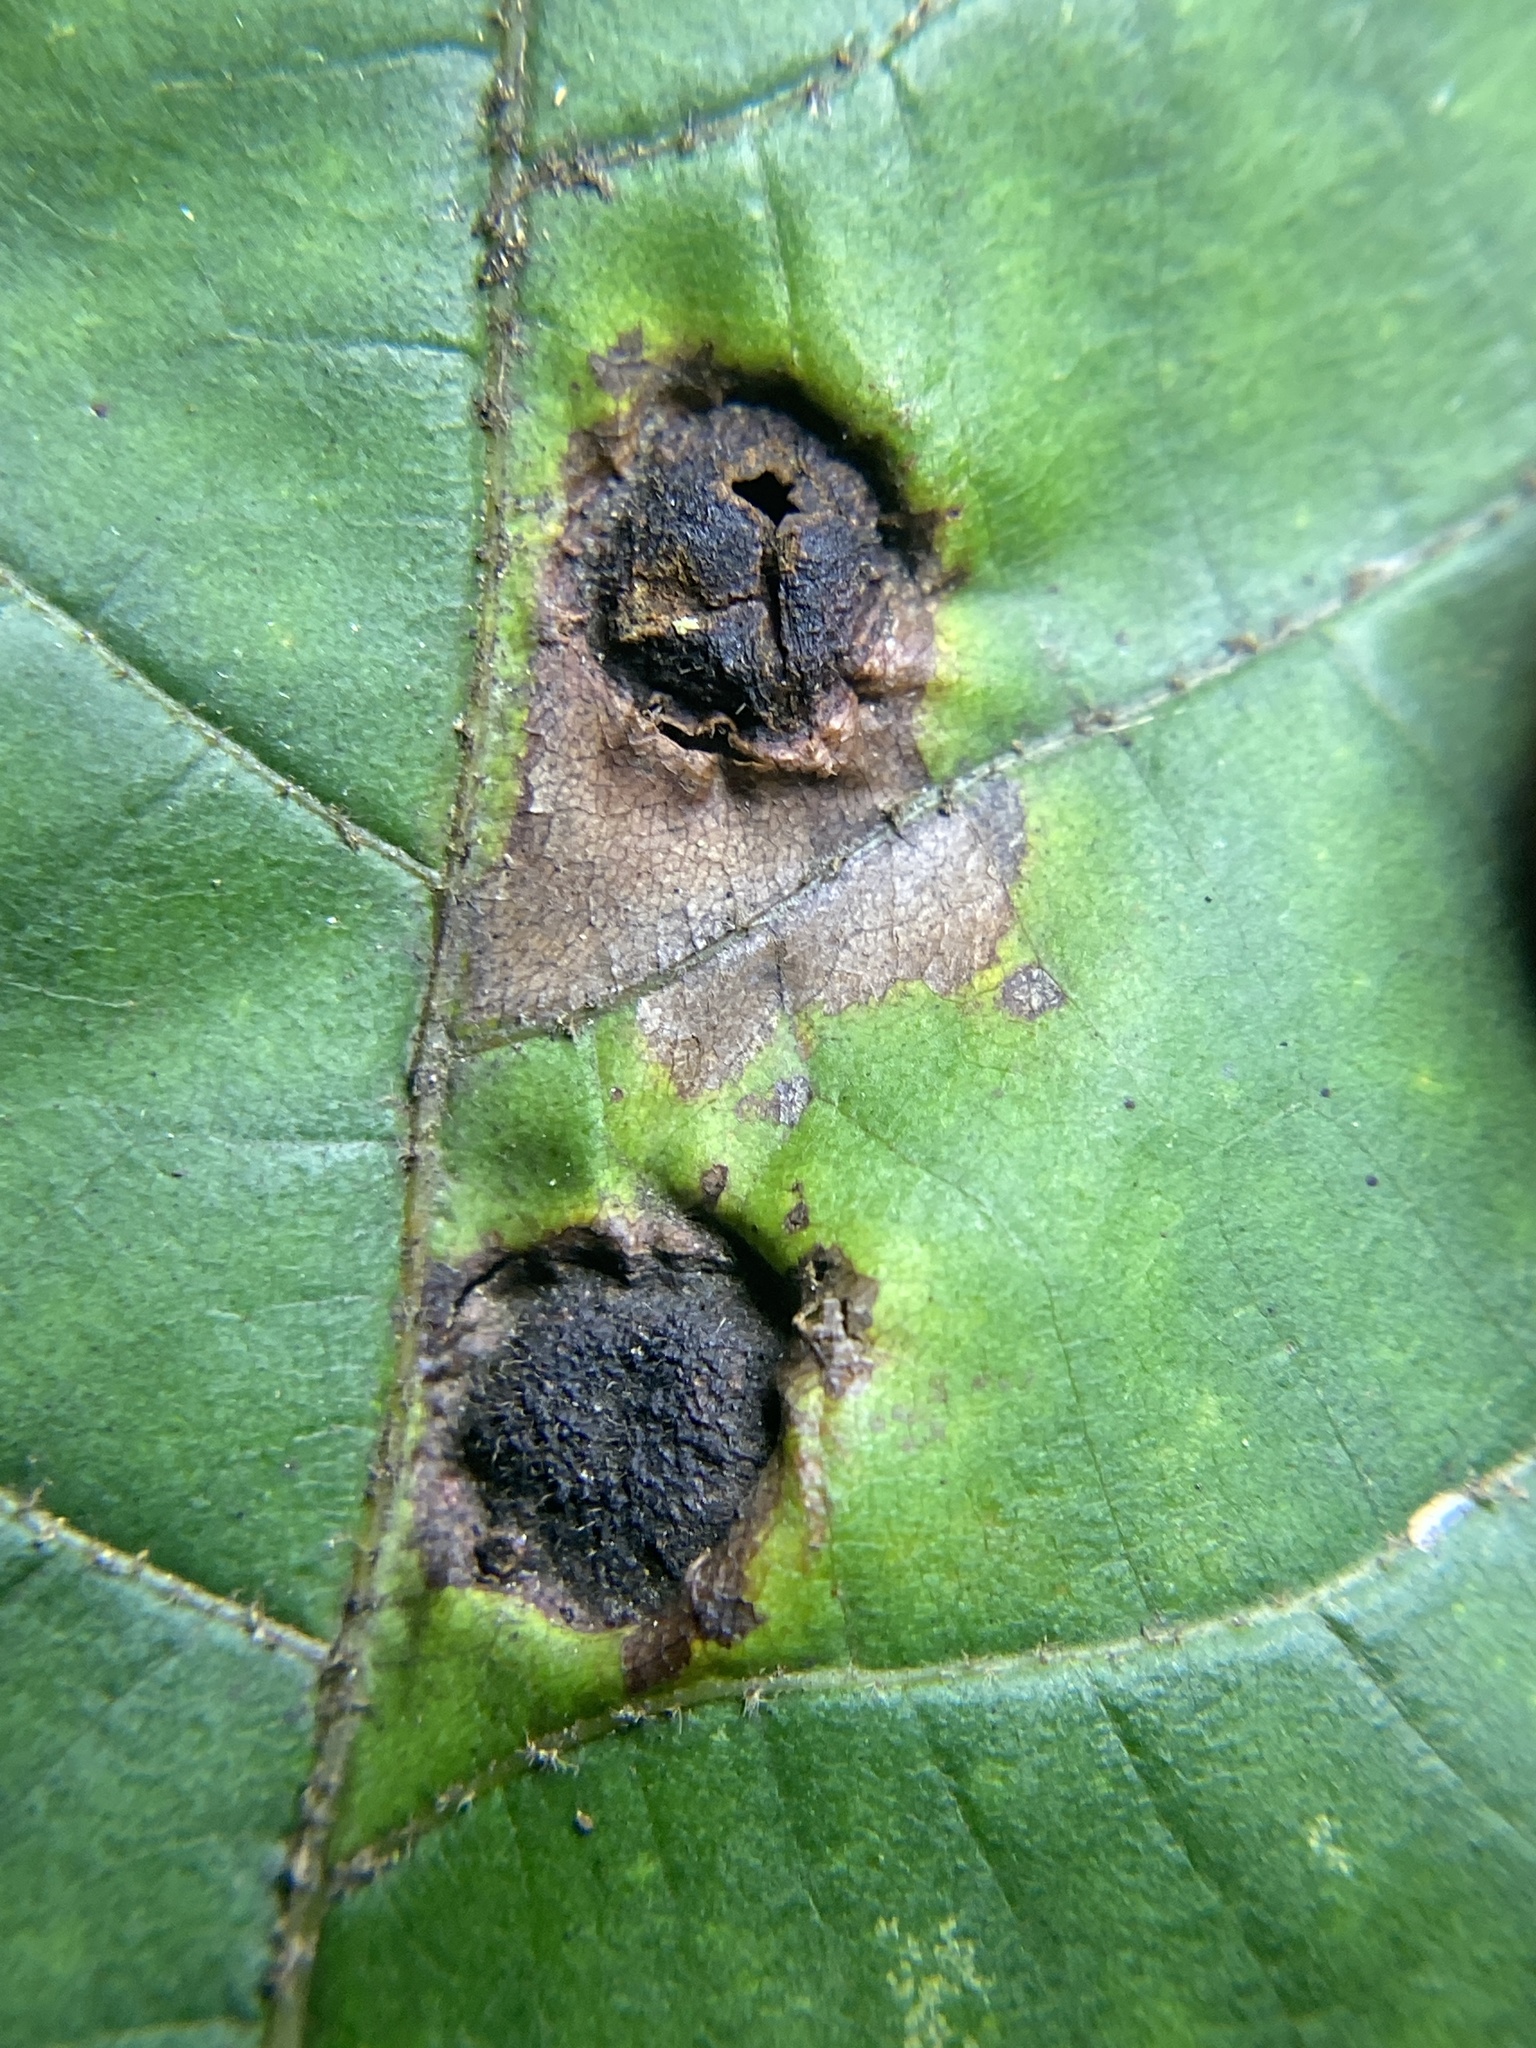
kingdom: Animalia
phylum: Arthropoda
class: Insecta
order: Hemiptera
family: Phylloxeridae
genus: Phylloxera
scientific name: Phylloxera caryae-avellana
